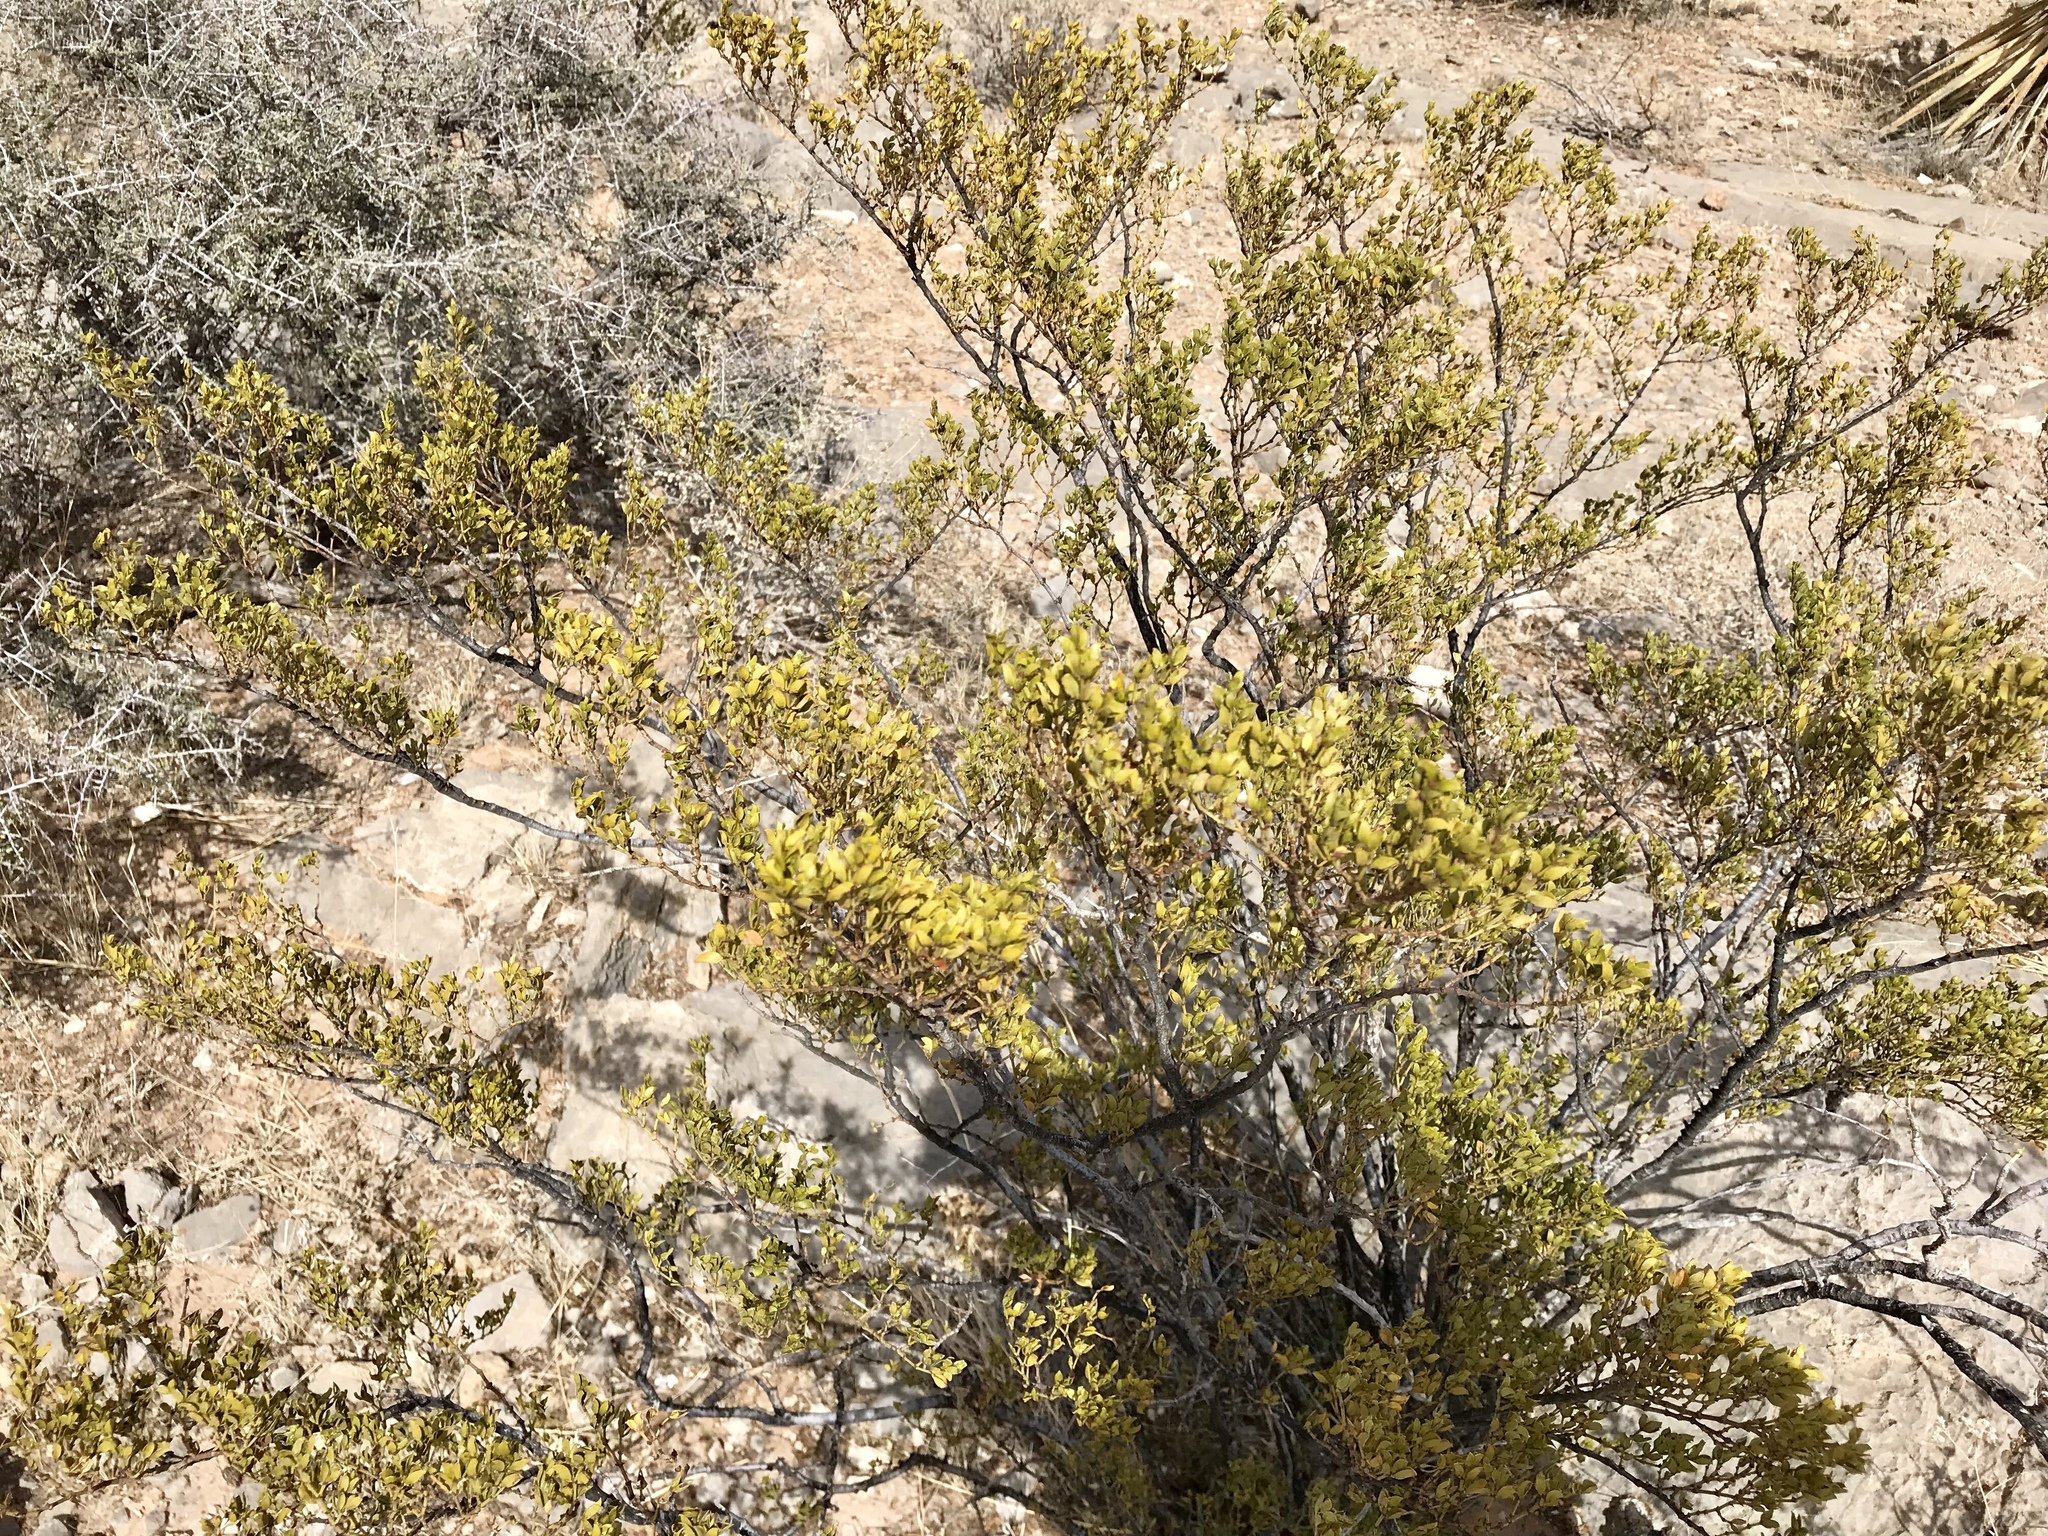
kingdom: Plantae
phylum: Tracheophyta
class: Magnoliopsida
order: Zygophyllales
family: Zygophyllaceae
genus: Larrea
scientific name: Larrea tridentata
